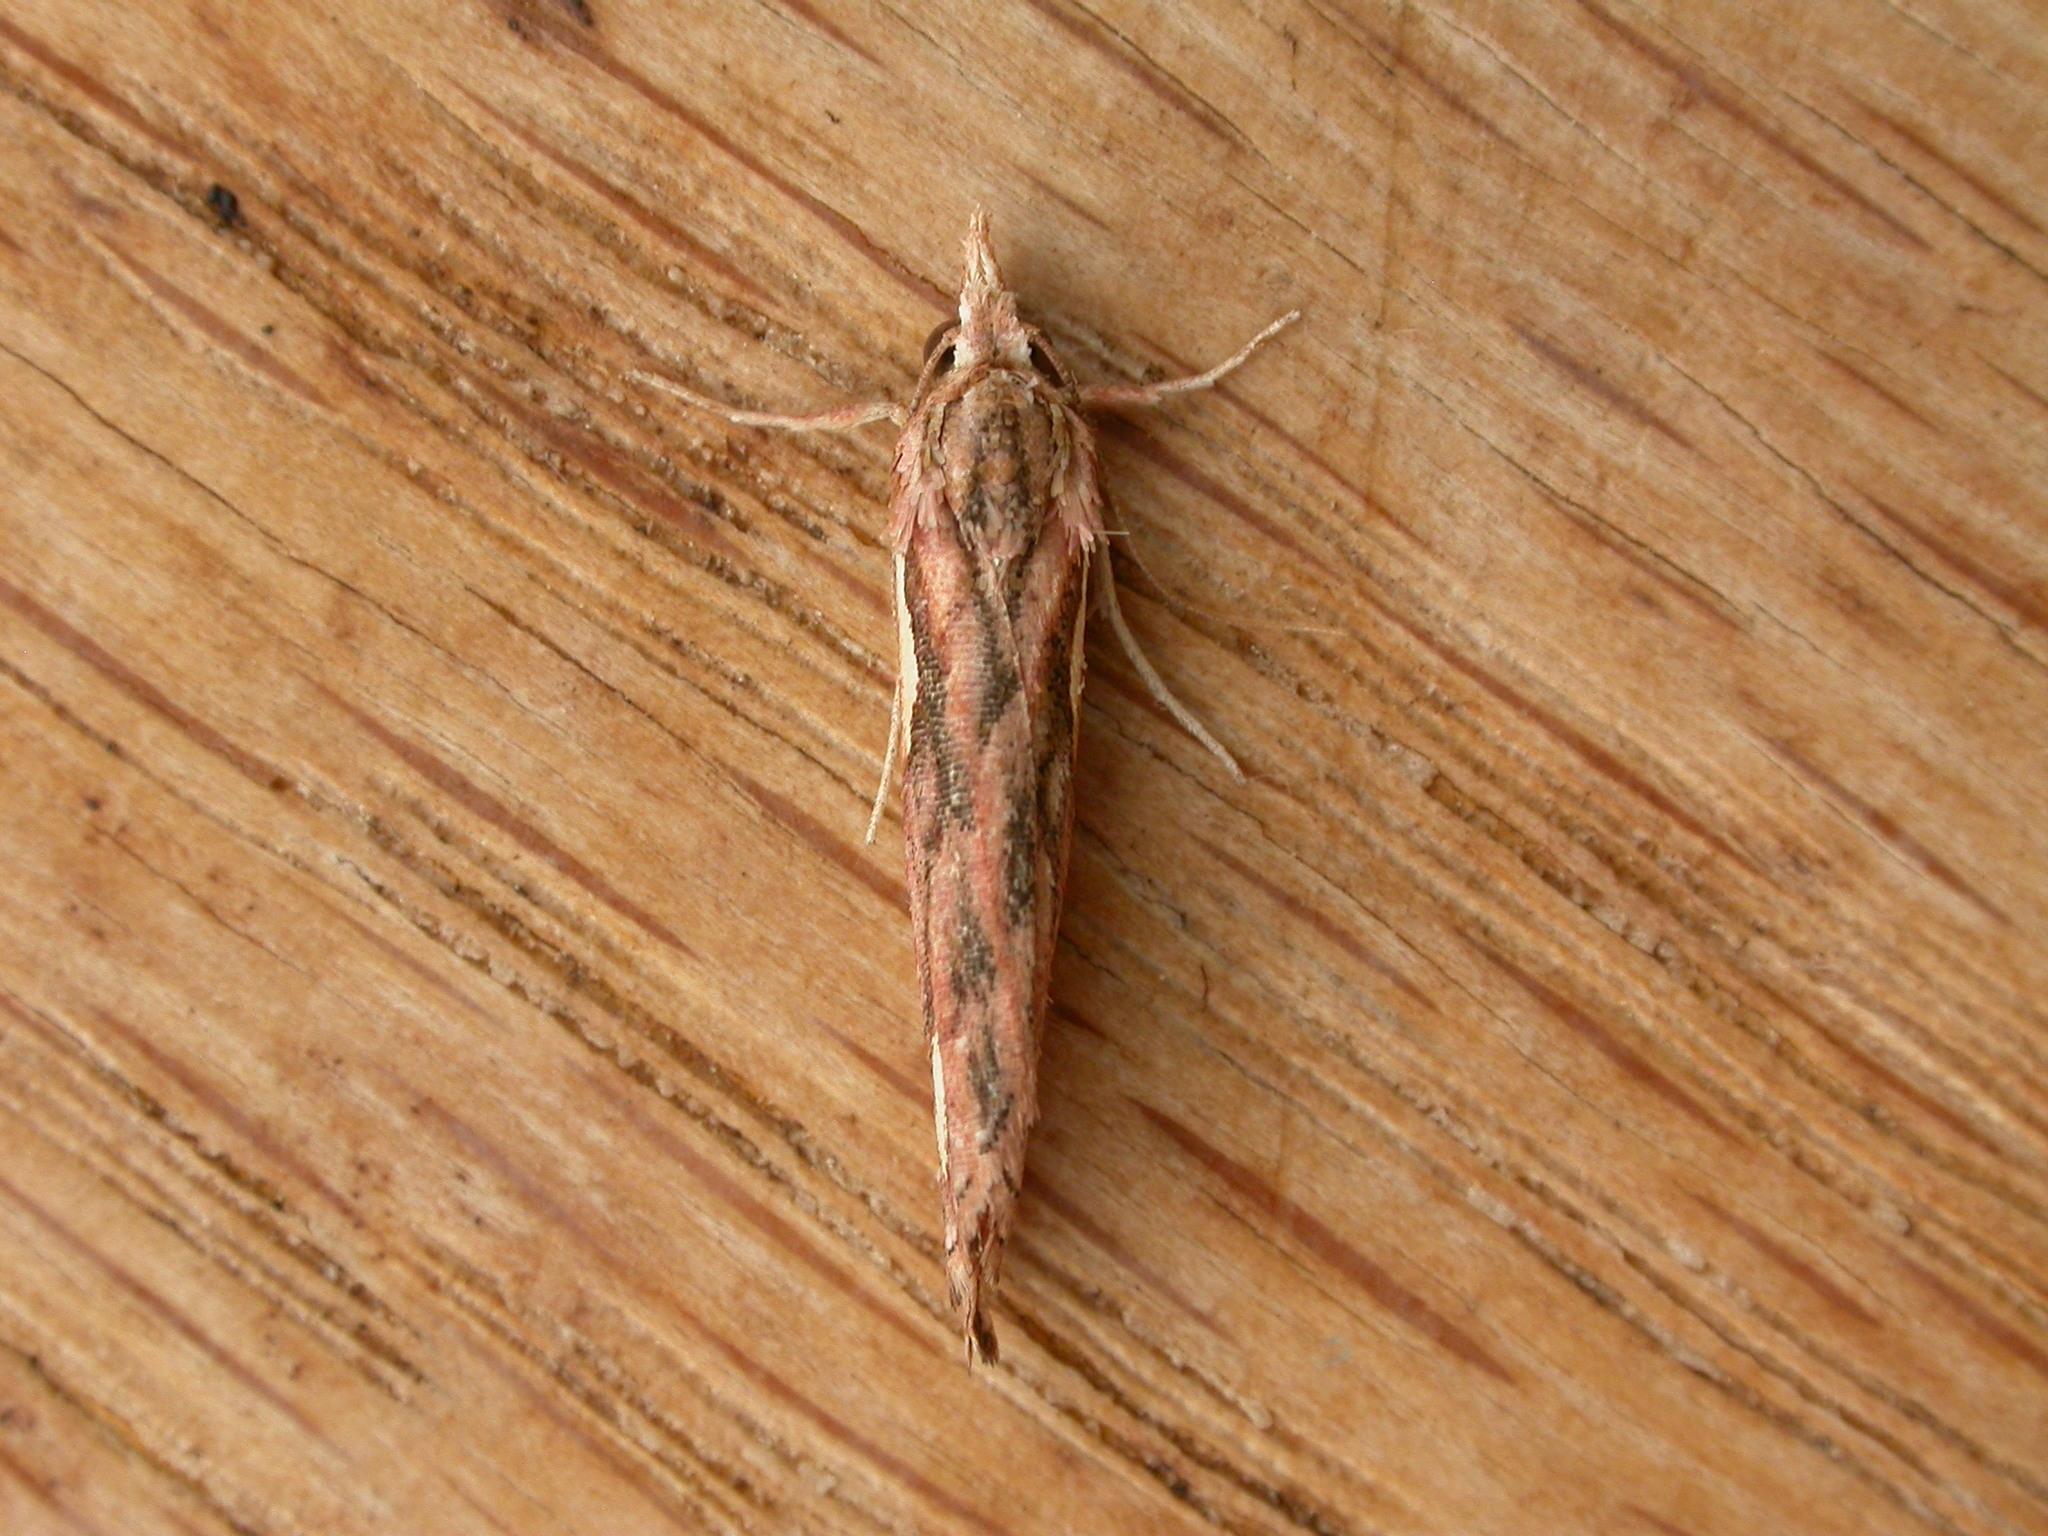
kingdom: Animalia
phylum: Arthropoda
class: Insecta
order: Lepidoptera
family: Erebidae
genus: Meyrickella
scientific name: Meyrickella torquesauria
